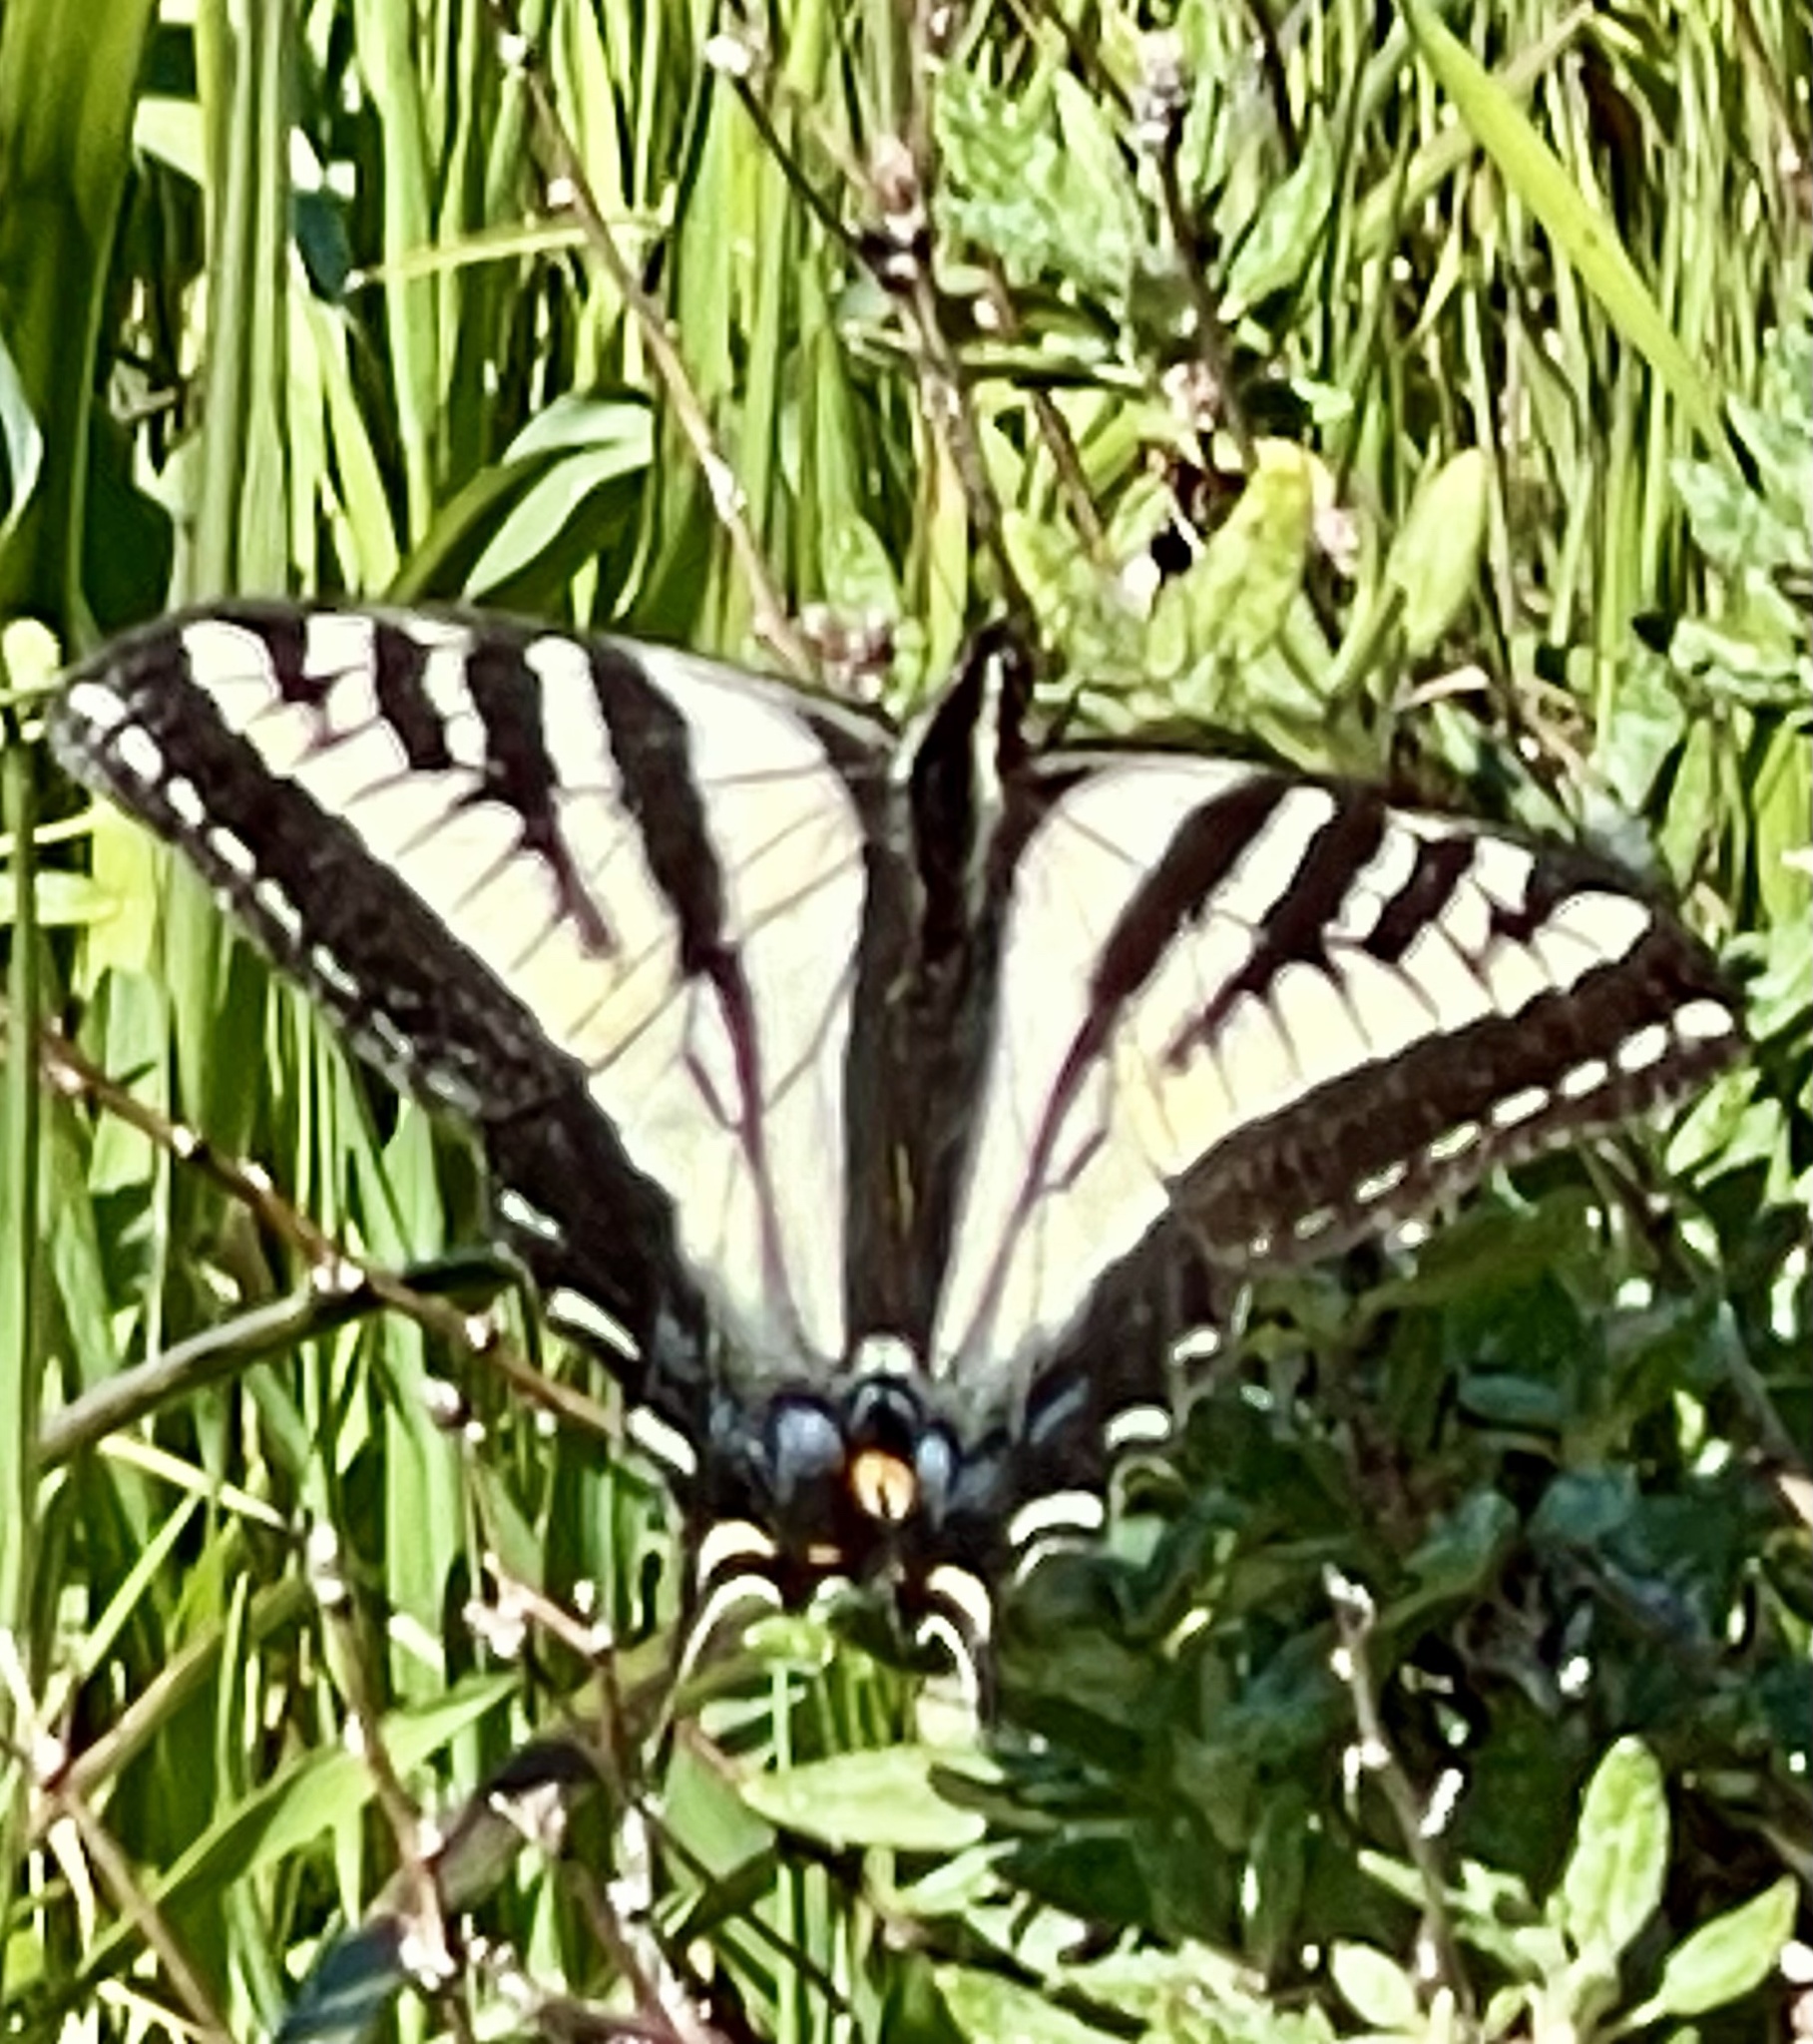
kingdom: Animalia
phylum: Arthropoda
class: Insecta
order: Lepidoptera
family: Papilionidae
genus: Papilio
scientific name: Papilio eurymedon
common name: Pale tiger swallowtail
